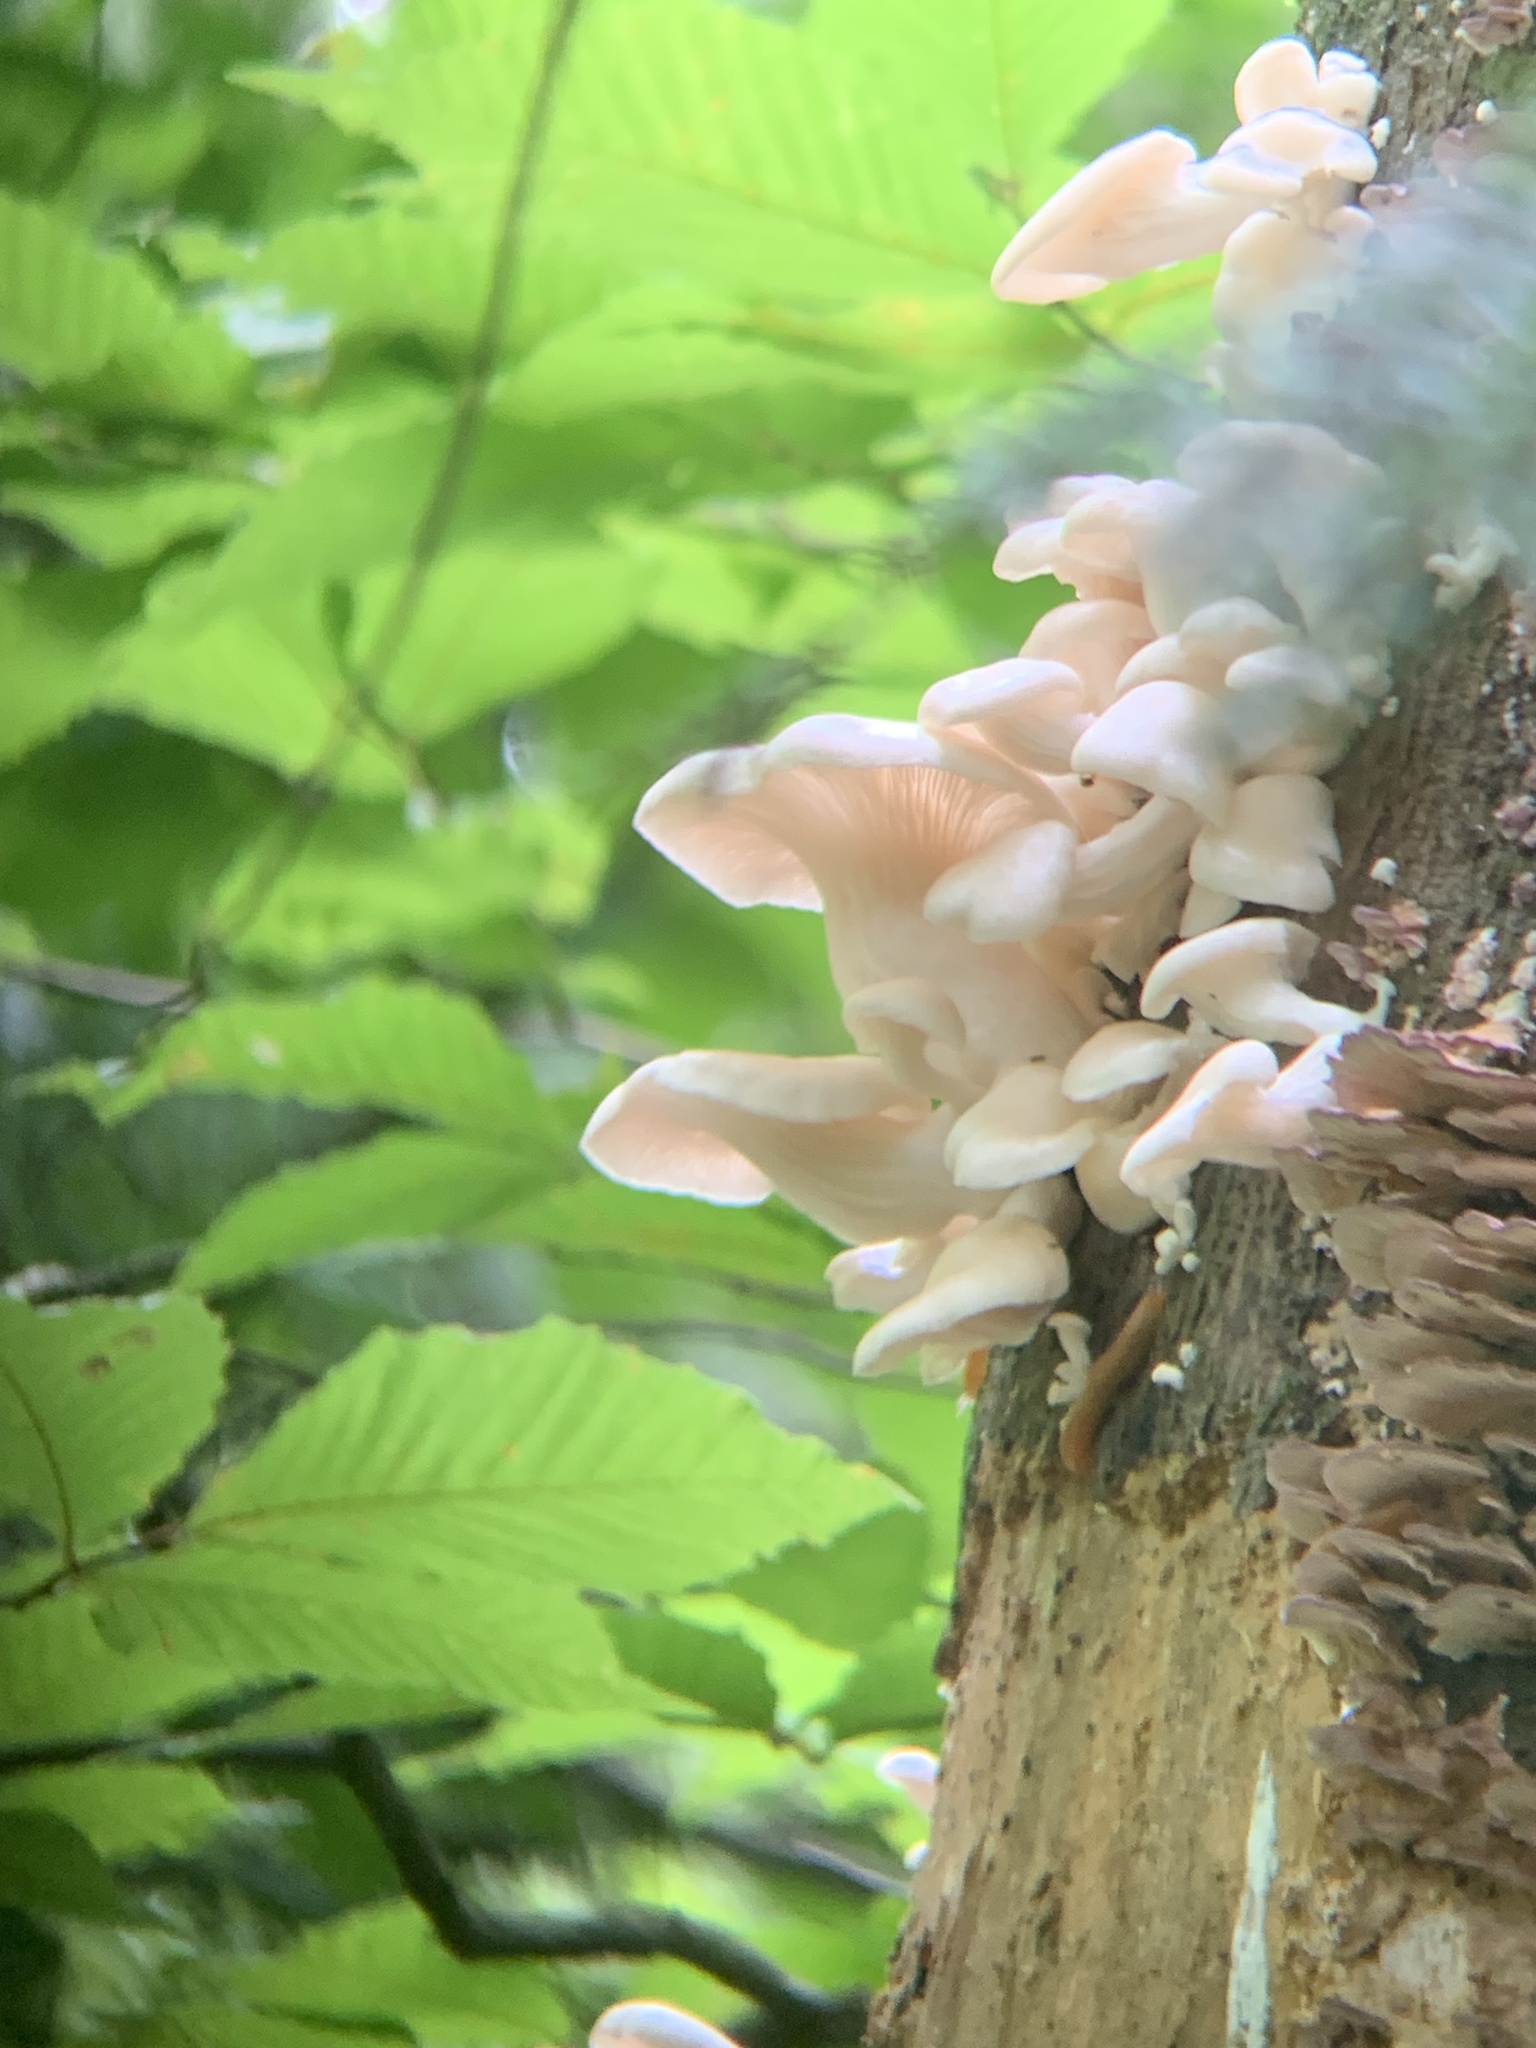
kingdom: Fungi
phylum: Basidiomycota
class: Agaricomycetes
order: Agaricales
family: Pleurotaceae
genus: Pleurotus
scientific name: Pleurotus pulmonarius
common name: Pale oyster
